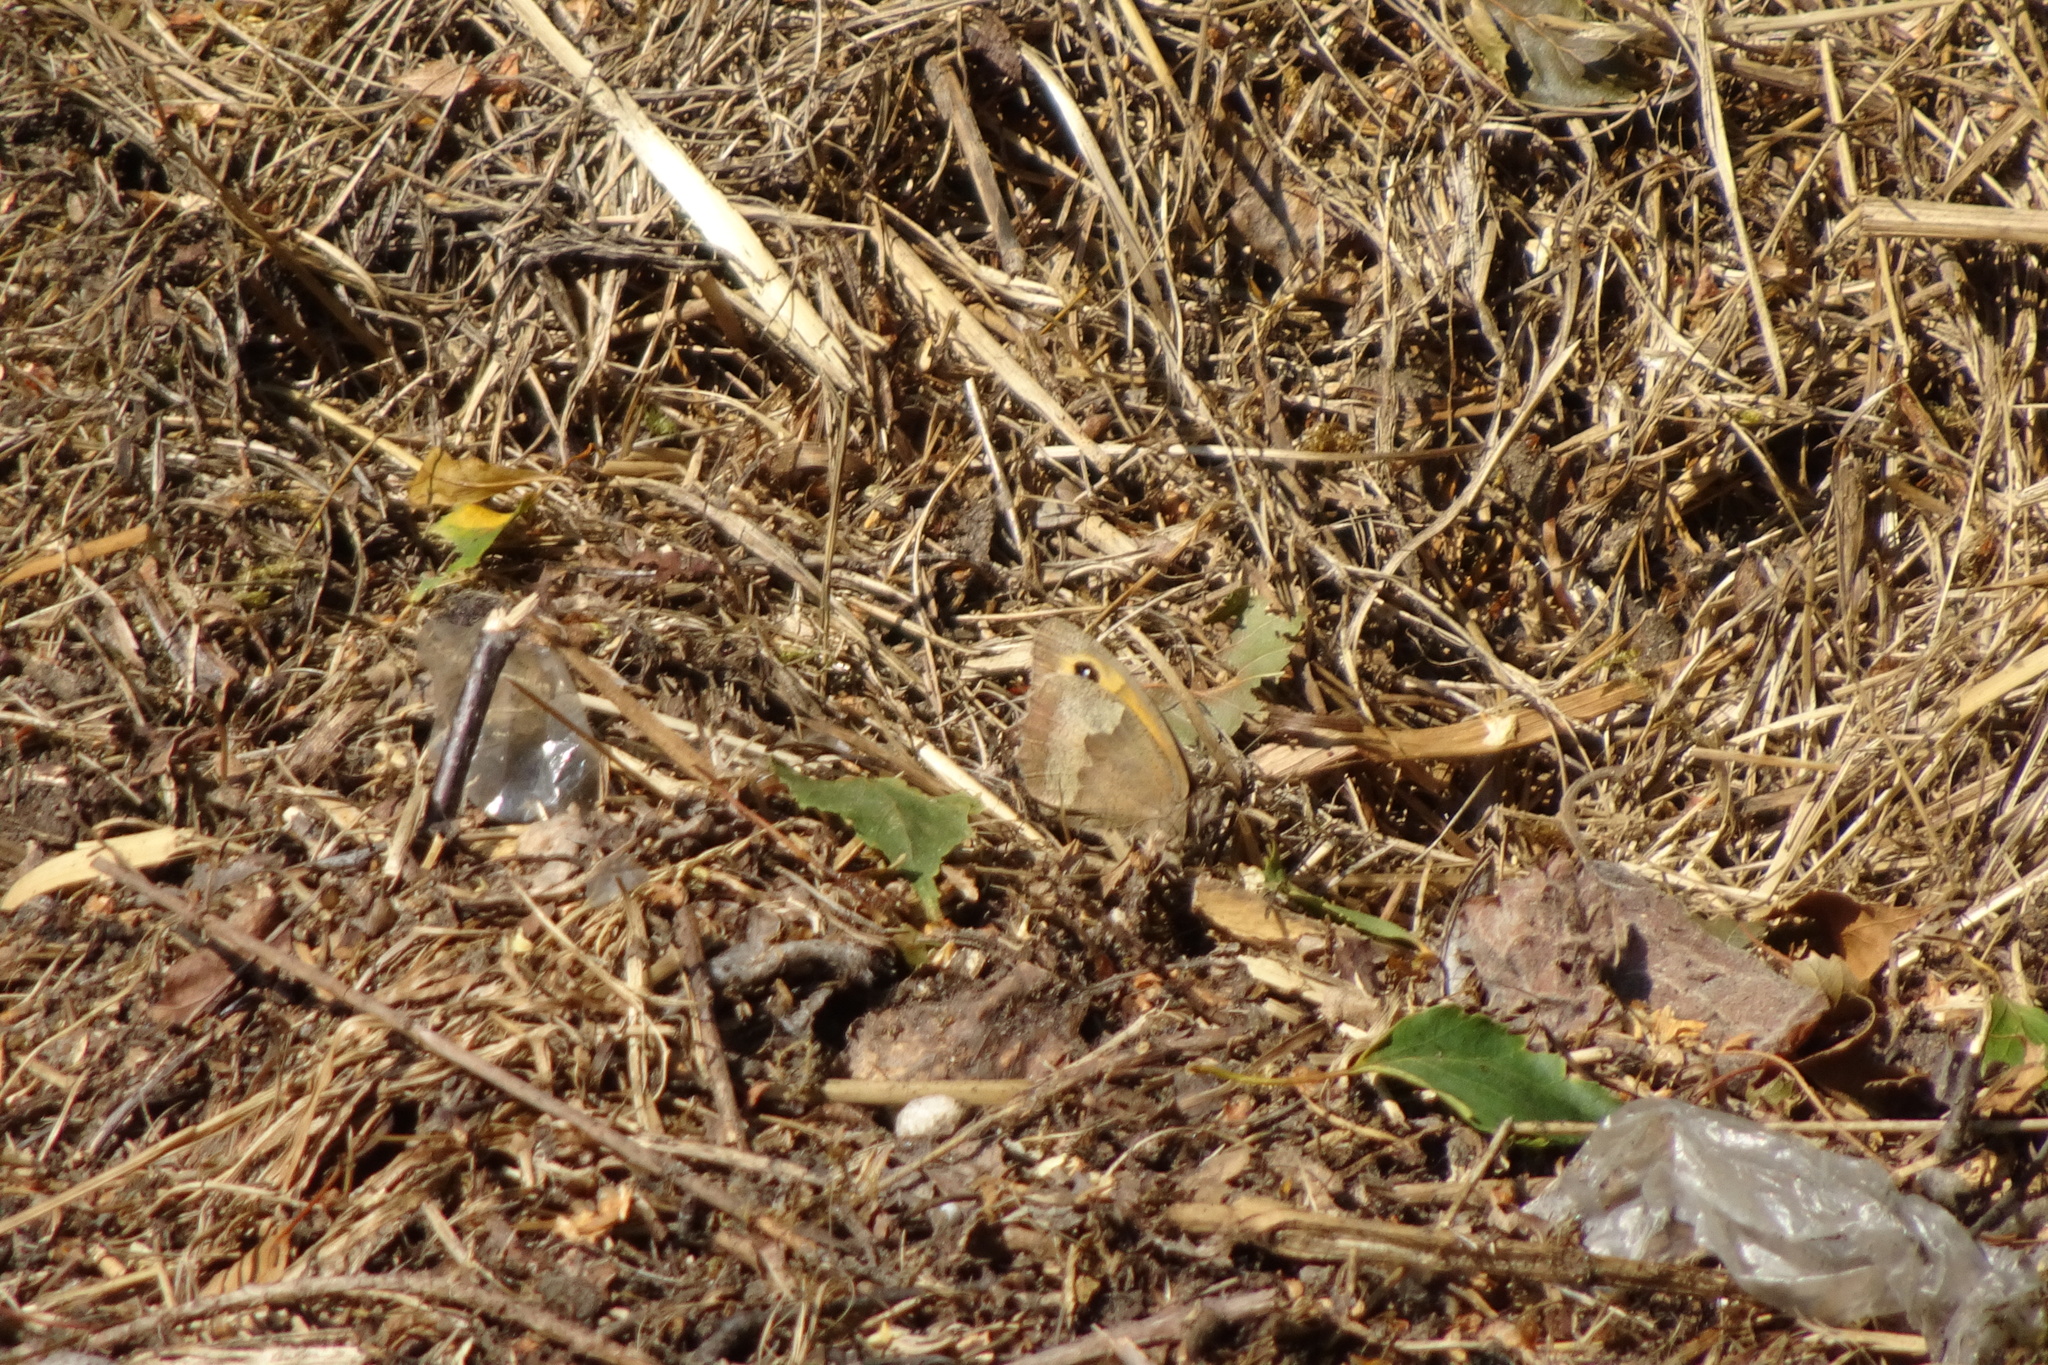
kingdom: Animalia
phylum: Arthropoda
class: Insecta
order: Lepidoptera
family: Nymphalidae
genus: Maniola
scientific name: Maniola jurtina
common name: Meadow brown
